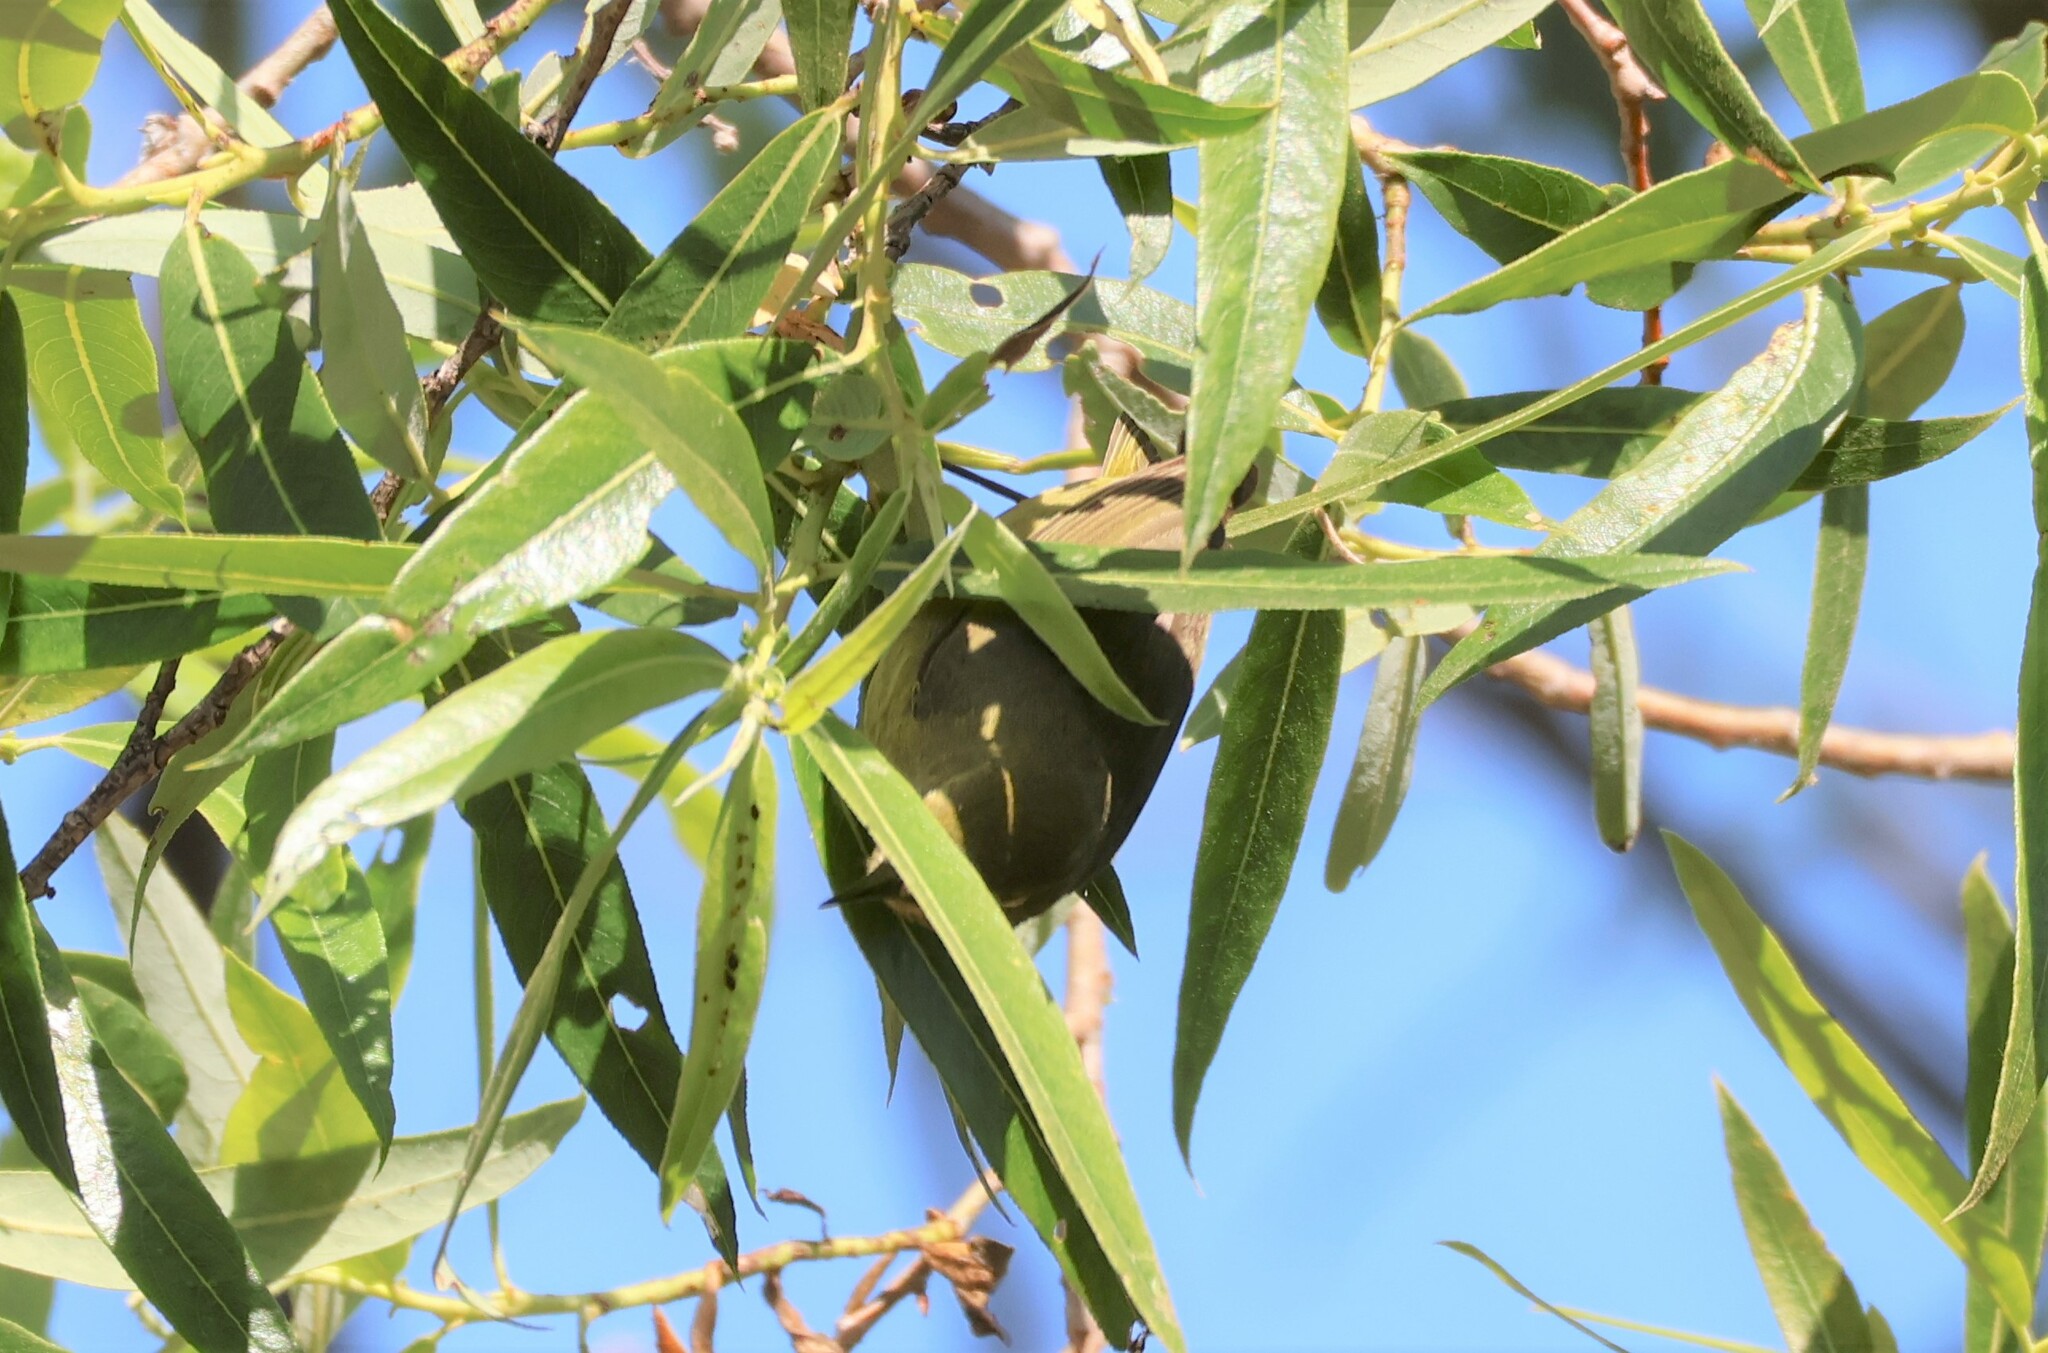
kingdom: Animalia
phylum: Chordata
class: Aves
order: Passeriformes
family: Parulidae
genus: Leiothlypis
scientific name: Leiothlypis celata
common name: Orange-crowned warbler
